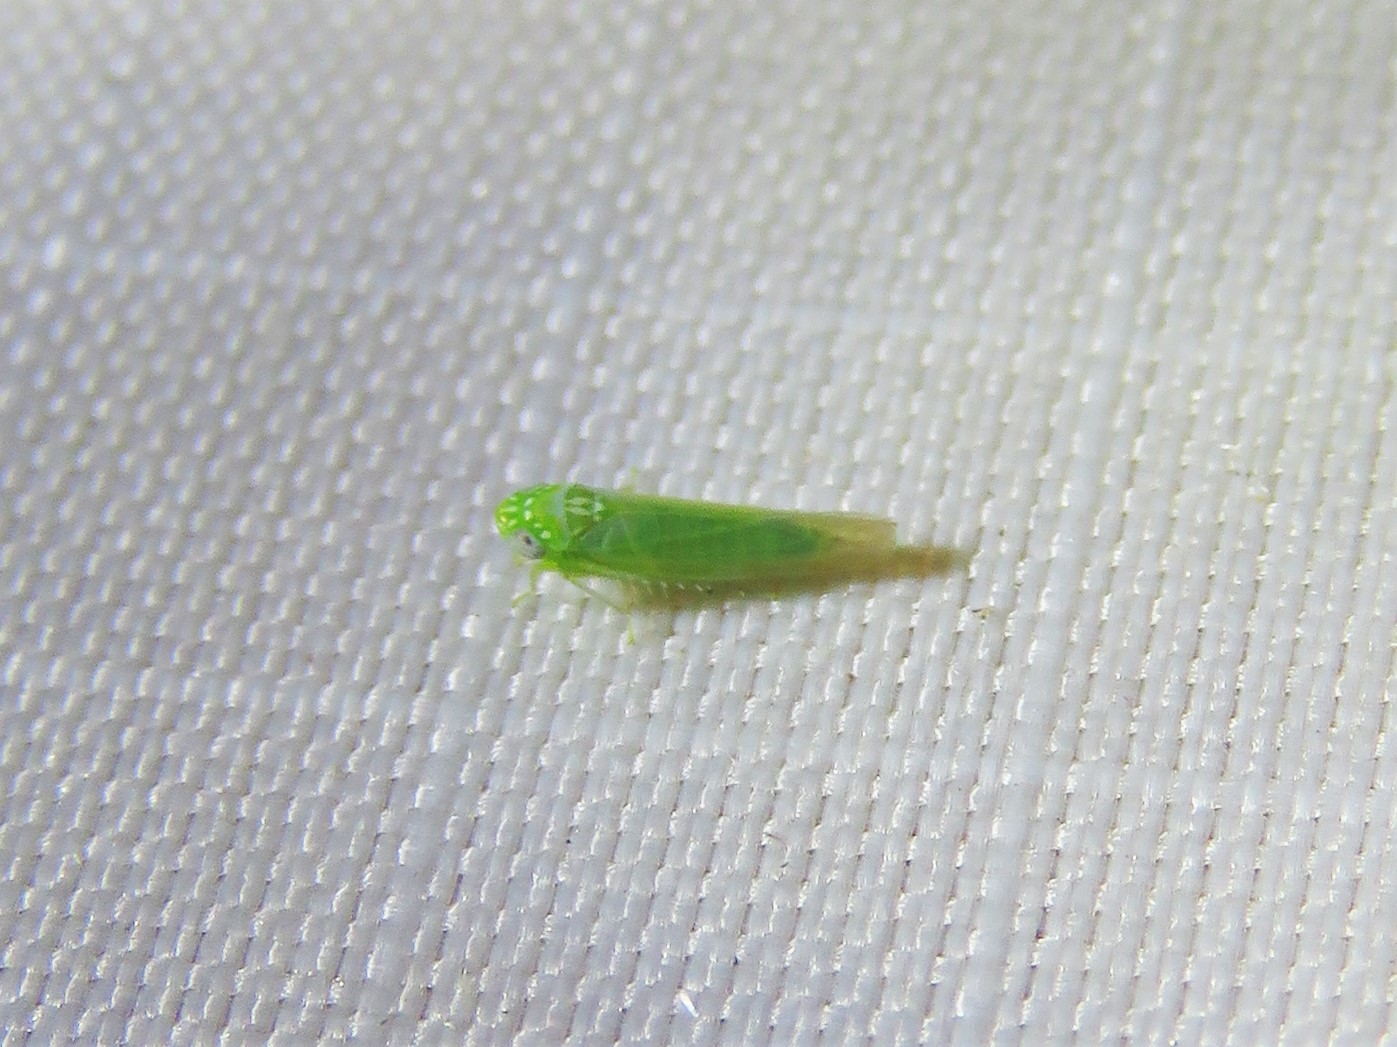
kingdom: Animalia
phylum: Arthropoda
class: Insecta
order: Hemiptera
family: Cicadellidae
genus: Empoasca
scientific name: Empoasca fabae
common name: Potato leafhopper
